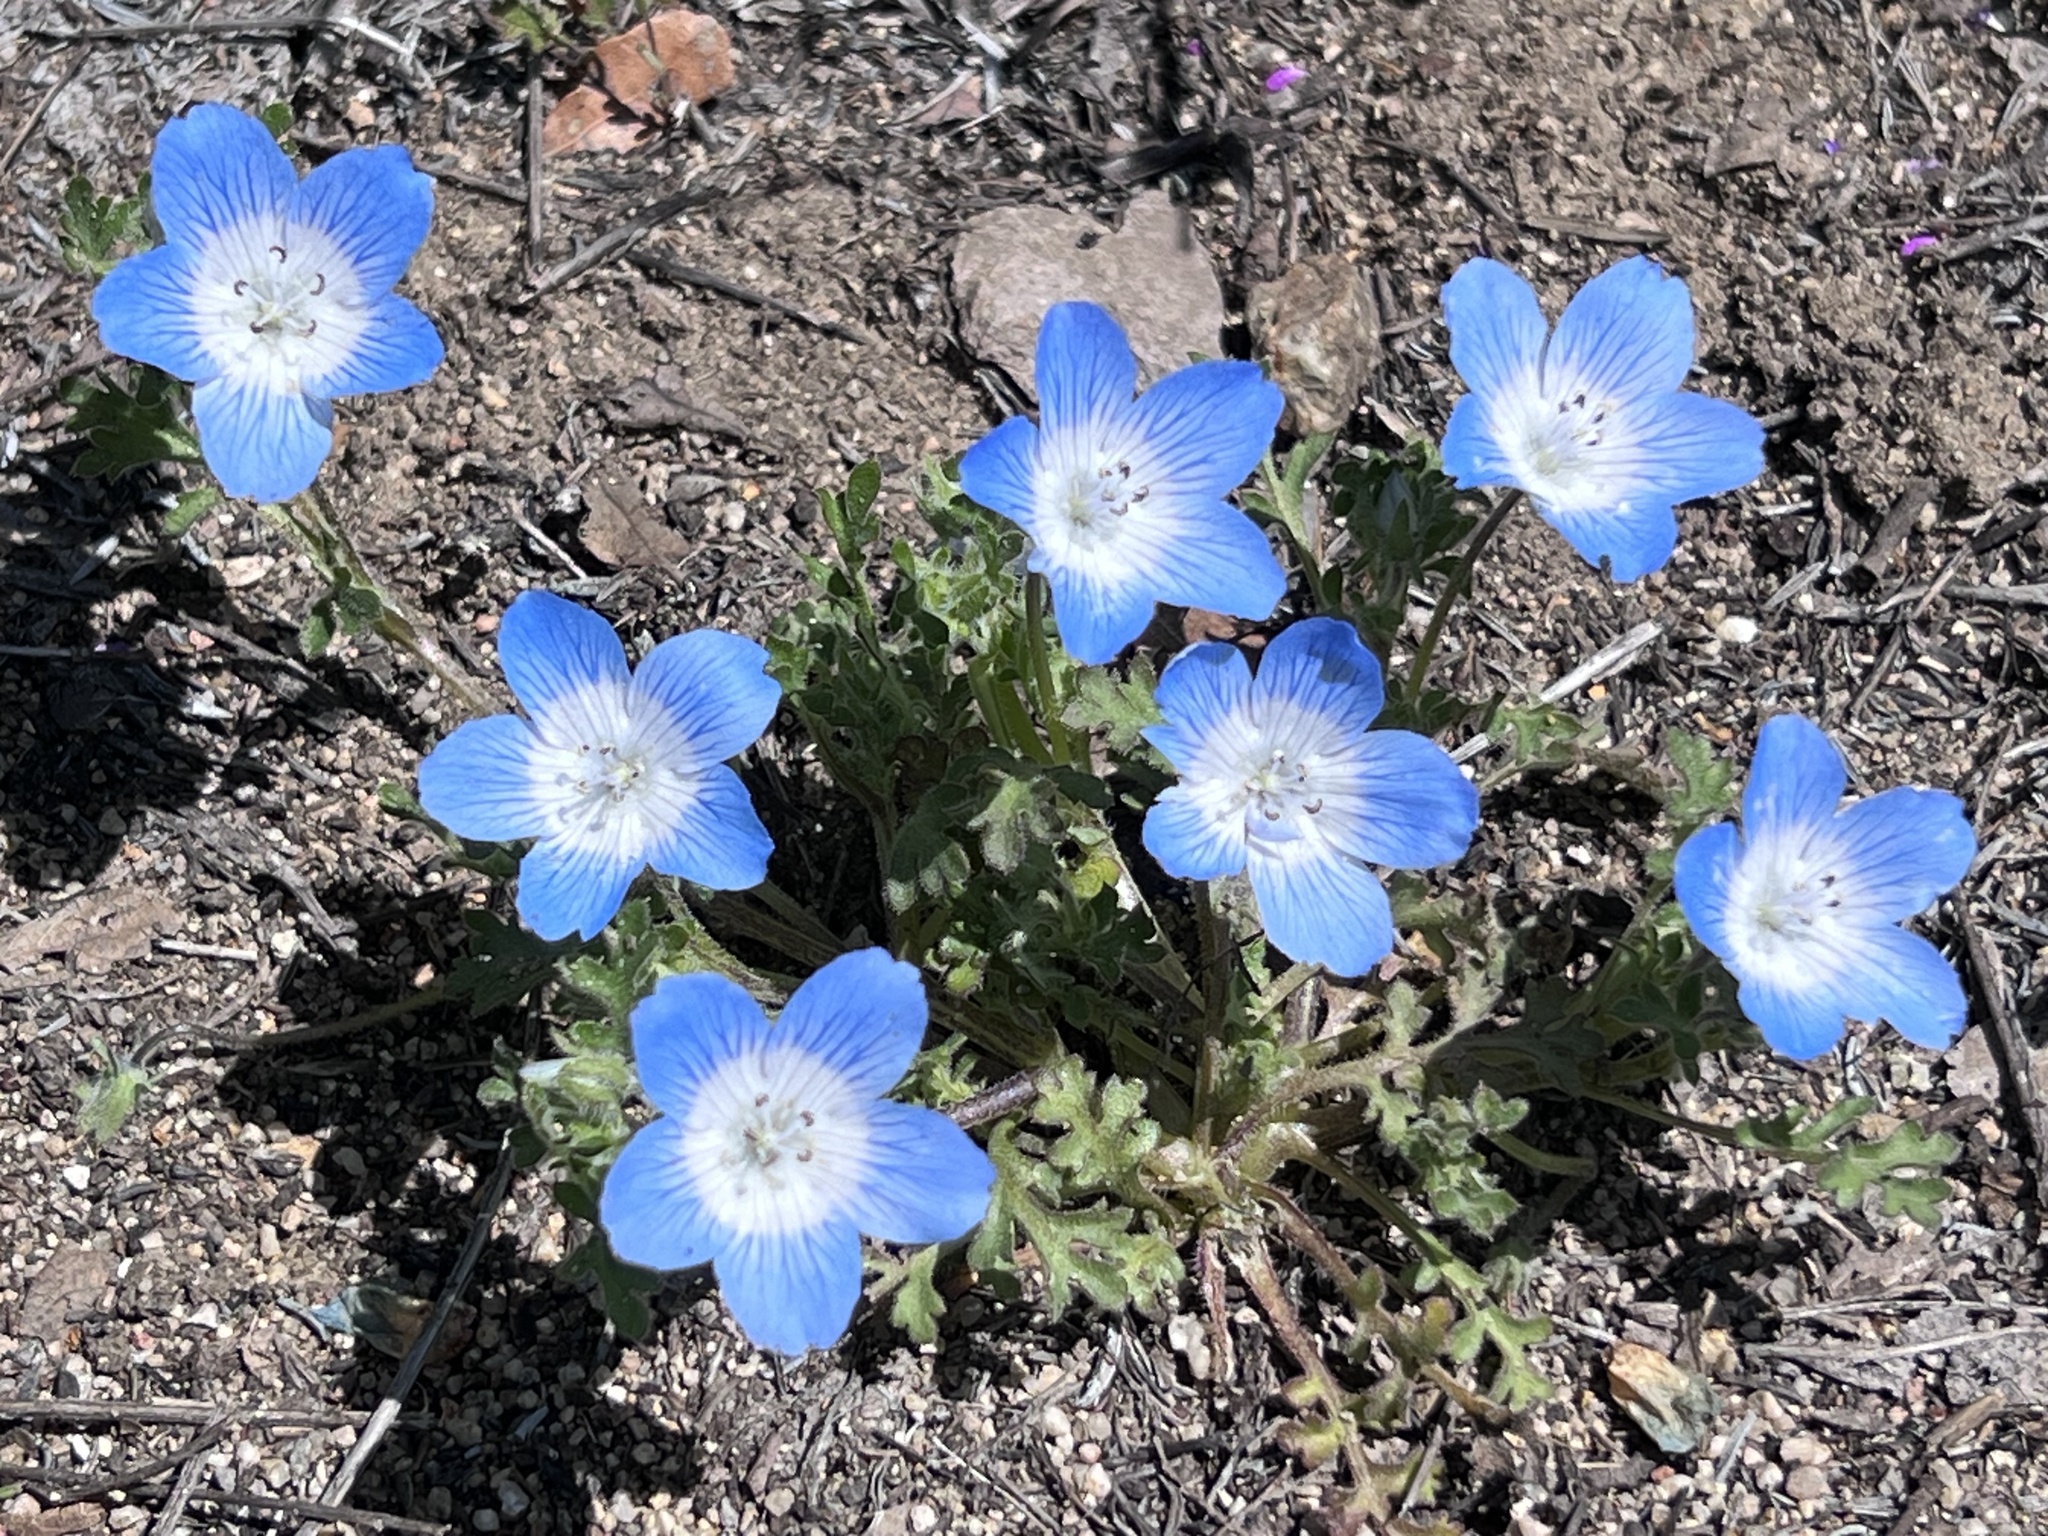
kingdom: Plantae
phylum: Tracheophyta
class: Magnoliopsida
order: Boraginales
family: Hydrophyllaceae
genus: Nemophila
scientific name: Nemophila menziesii
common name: Baby's-blue-eyes
